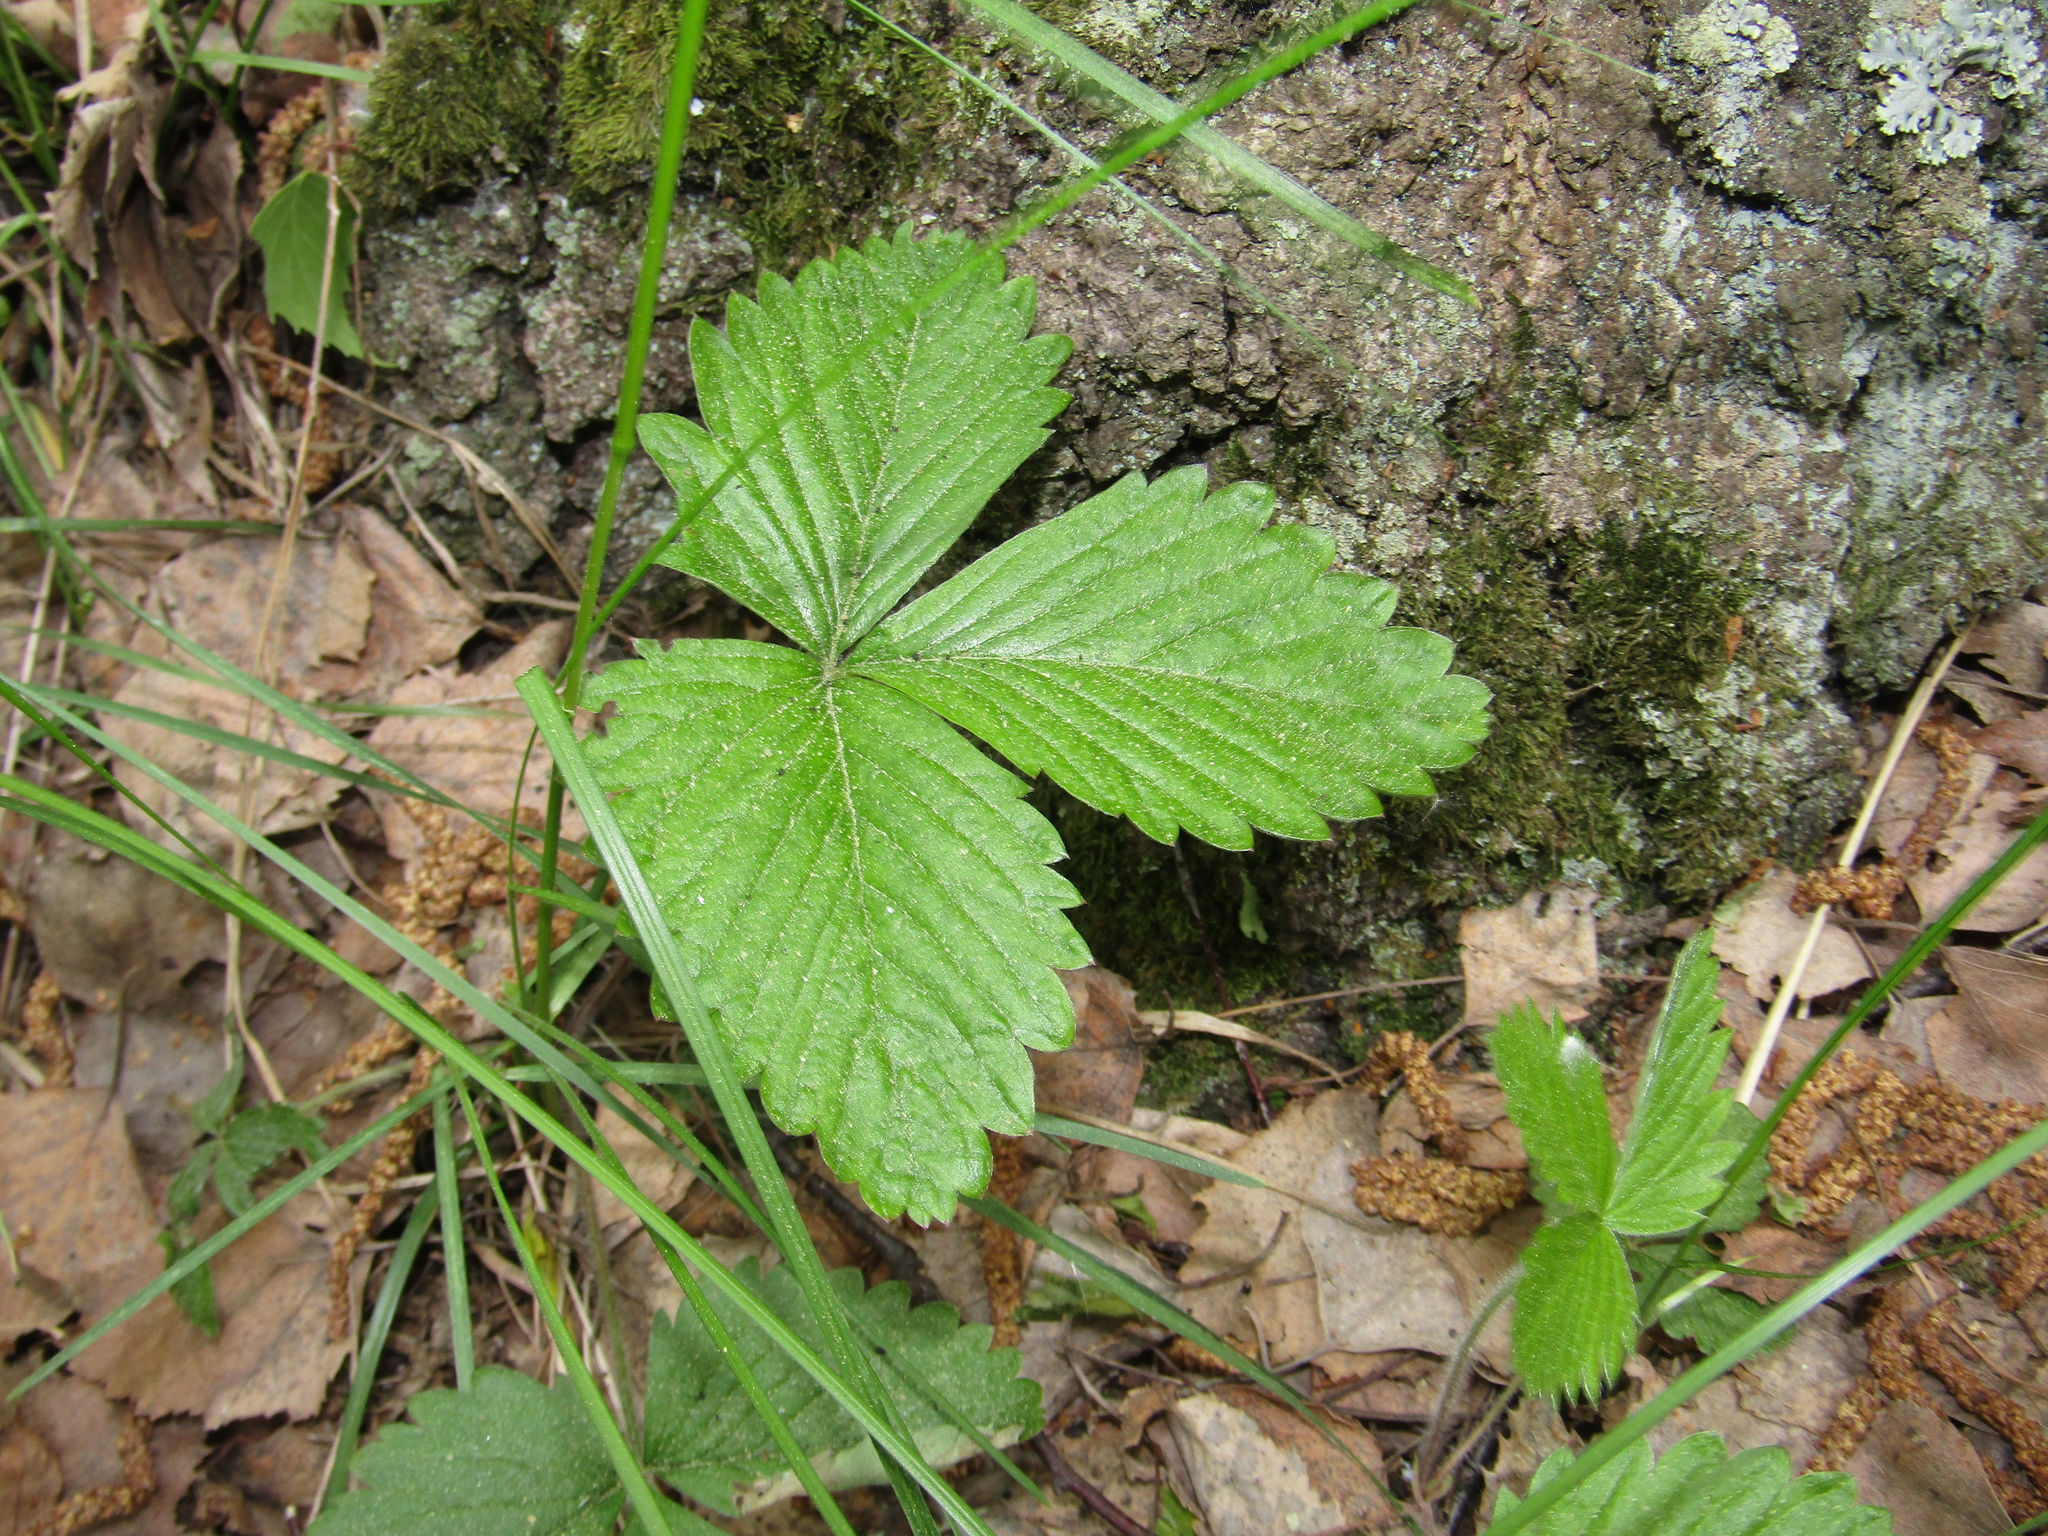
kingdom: Plantae
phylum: Tracheophyta
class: Magnoliopsida
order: Rosales
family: Rosaceae
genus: Fragaria
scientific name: Fragaria vesca
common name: Wild strawberry
